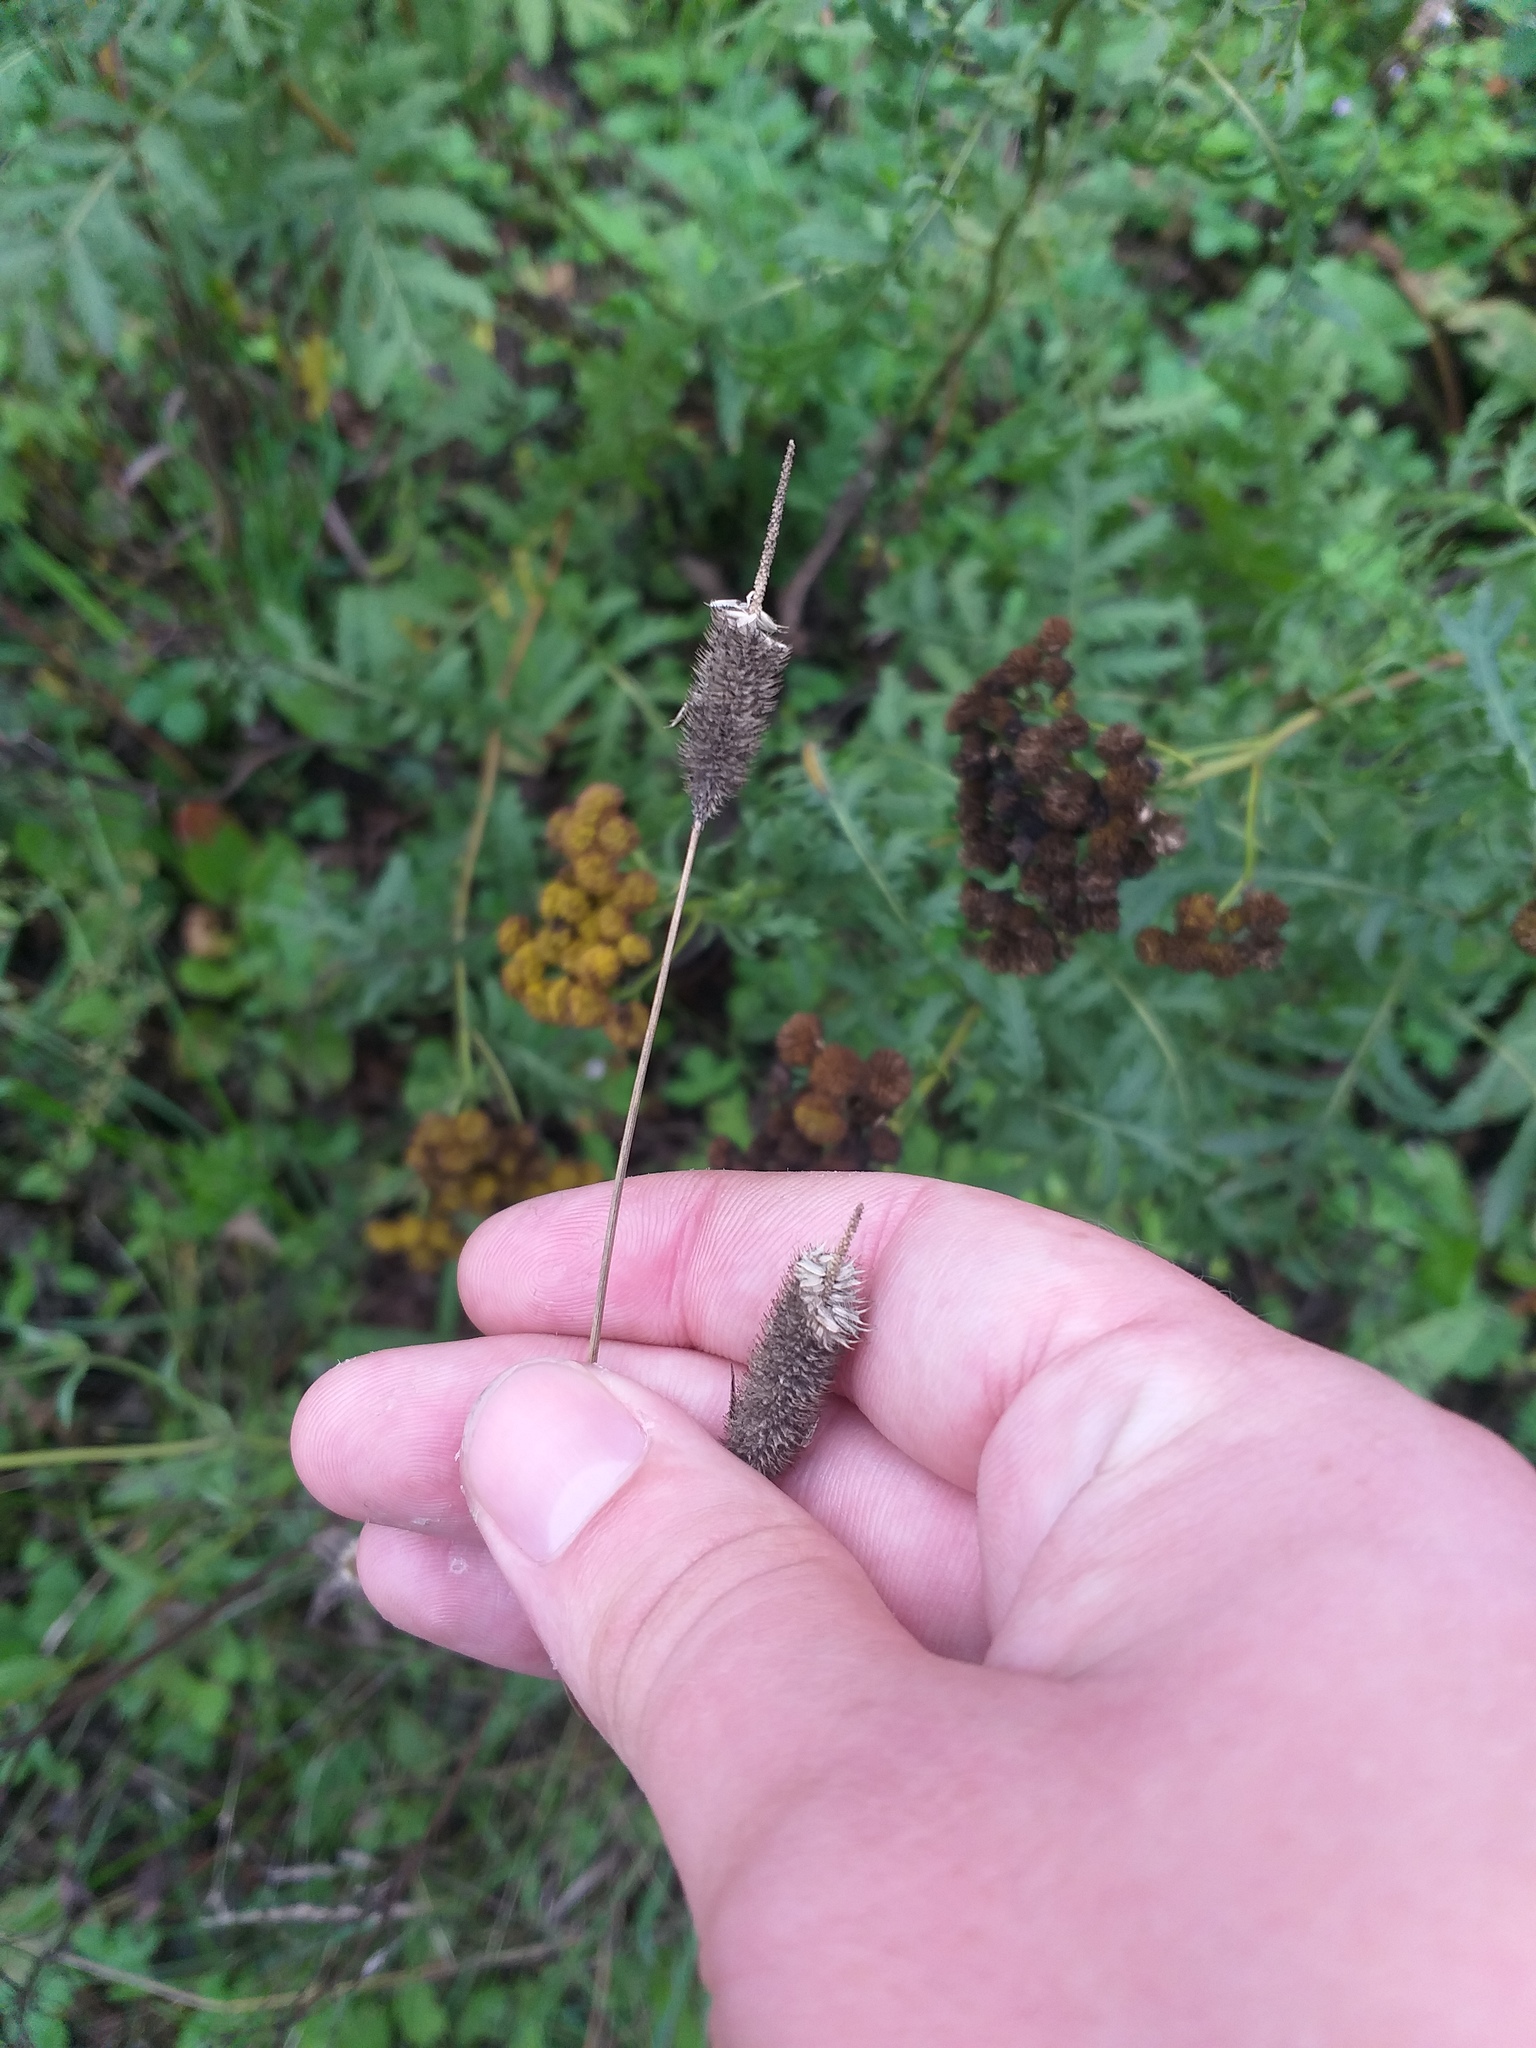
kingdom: Plantae
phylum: Tracheophyta
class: Liliopsida
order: Poales
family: Poaceae
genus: Phleum
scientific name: Phleum pratense
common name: Timothy grass
